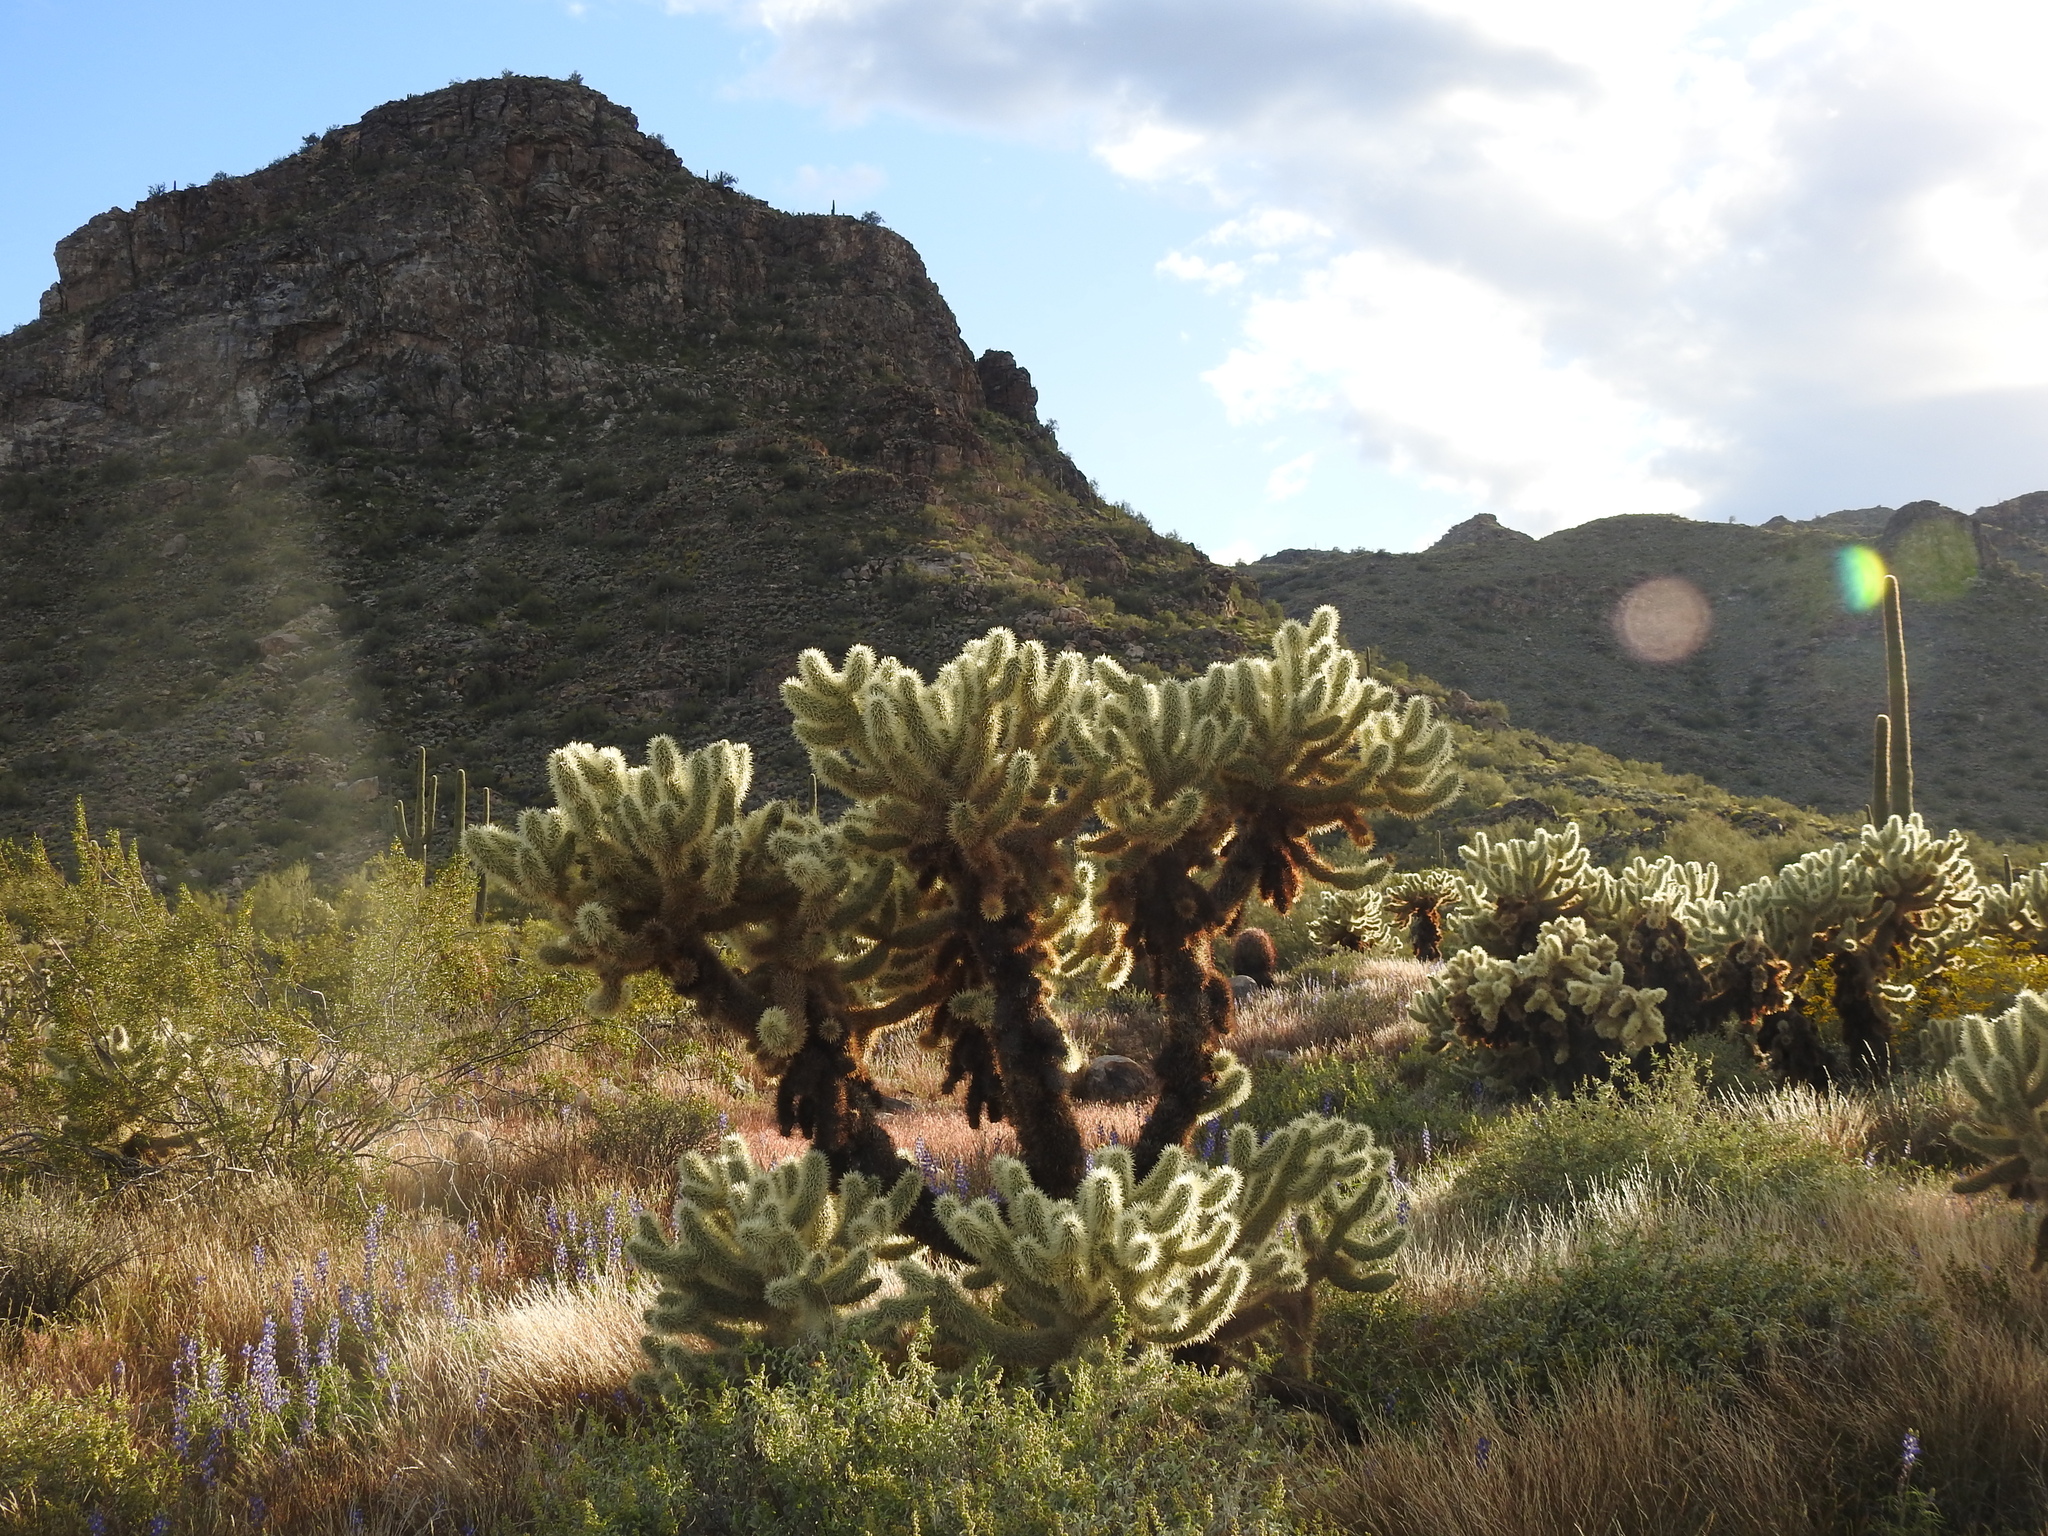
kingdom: Plantae
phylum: Tracheophyta
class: Magnoliopsida
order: Caryophyllales
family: Cactaceae
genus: Cylindropuntia
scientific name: Cylindropuntia fosbergii
